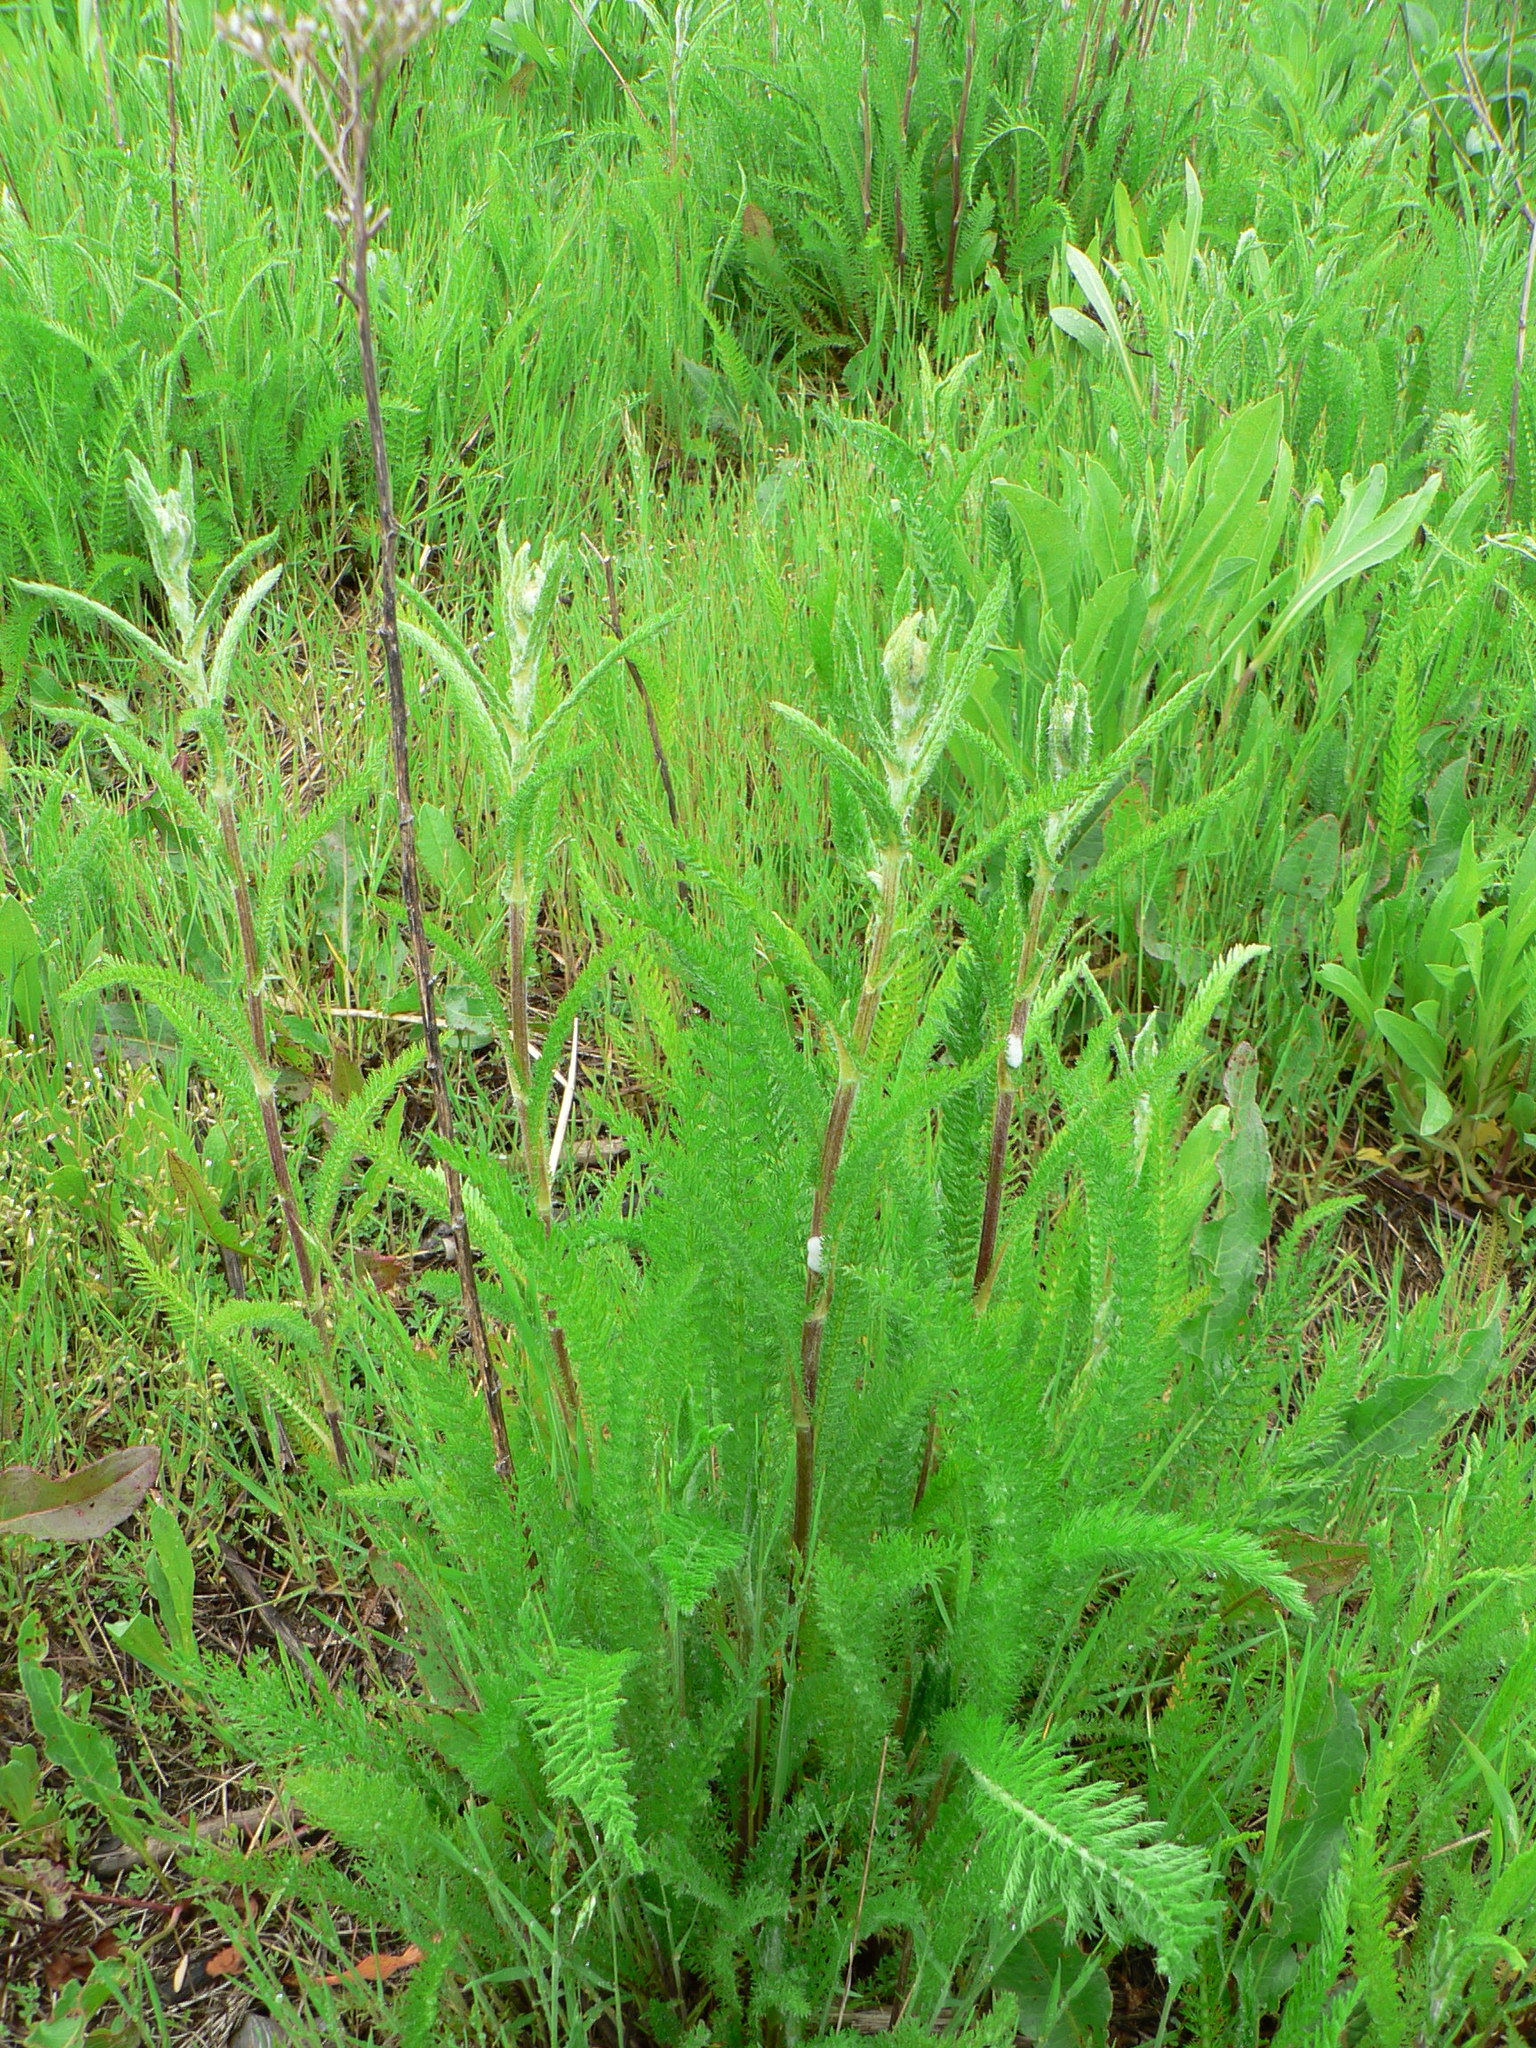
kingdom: Plantae
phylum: Tracheophyta
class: Magnoliopsida
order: Asterales
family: Asteraceae
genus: Achillea
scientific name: Achillea millefolium
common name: Yarrow
